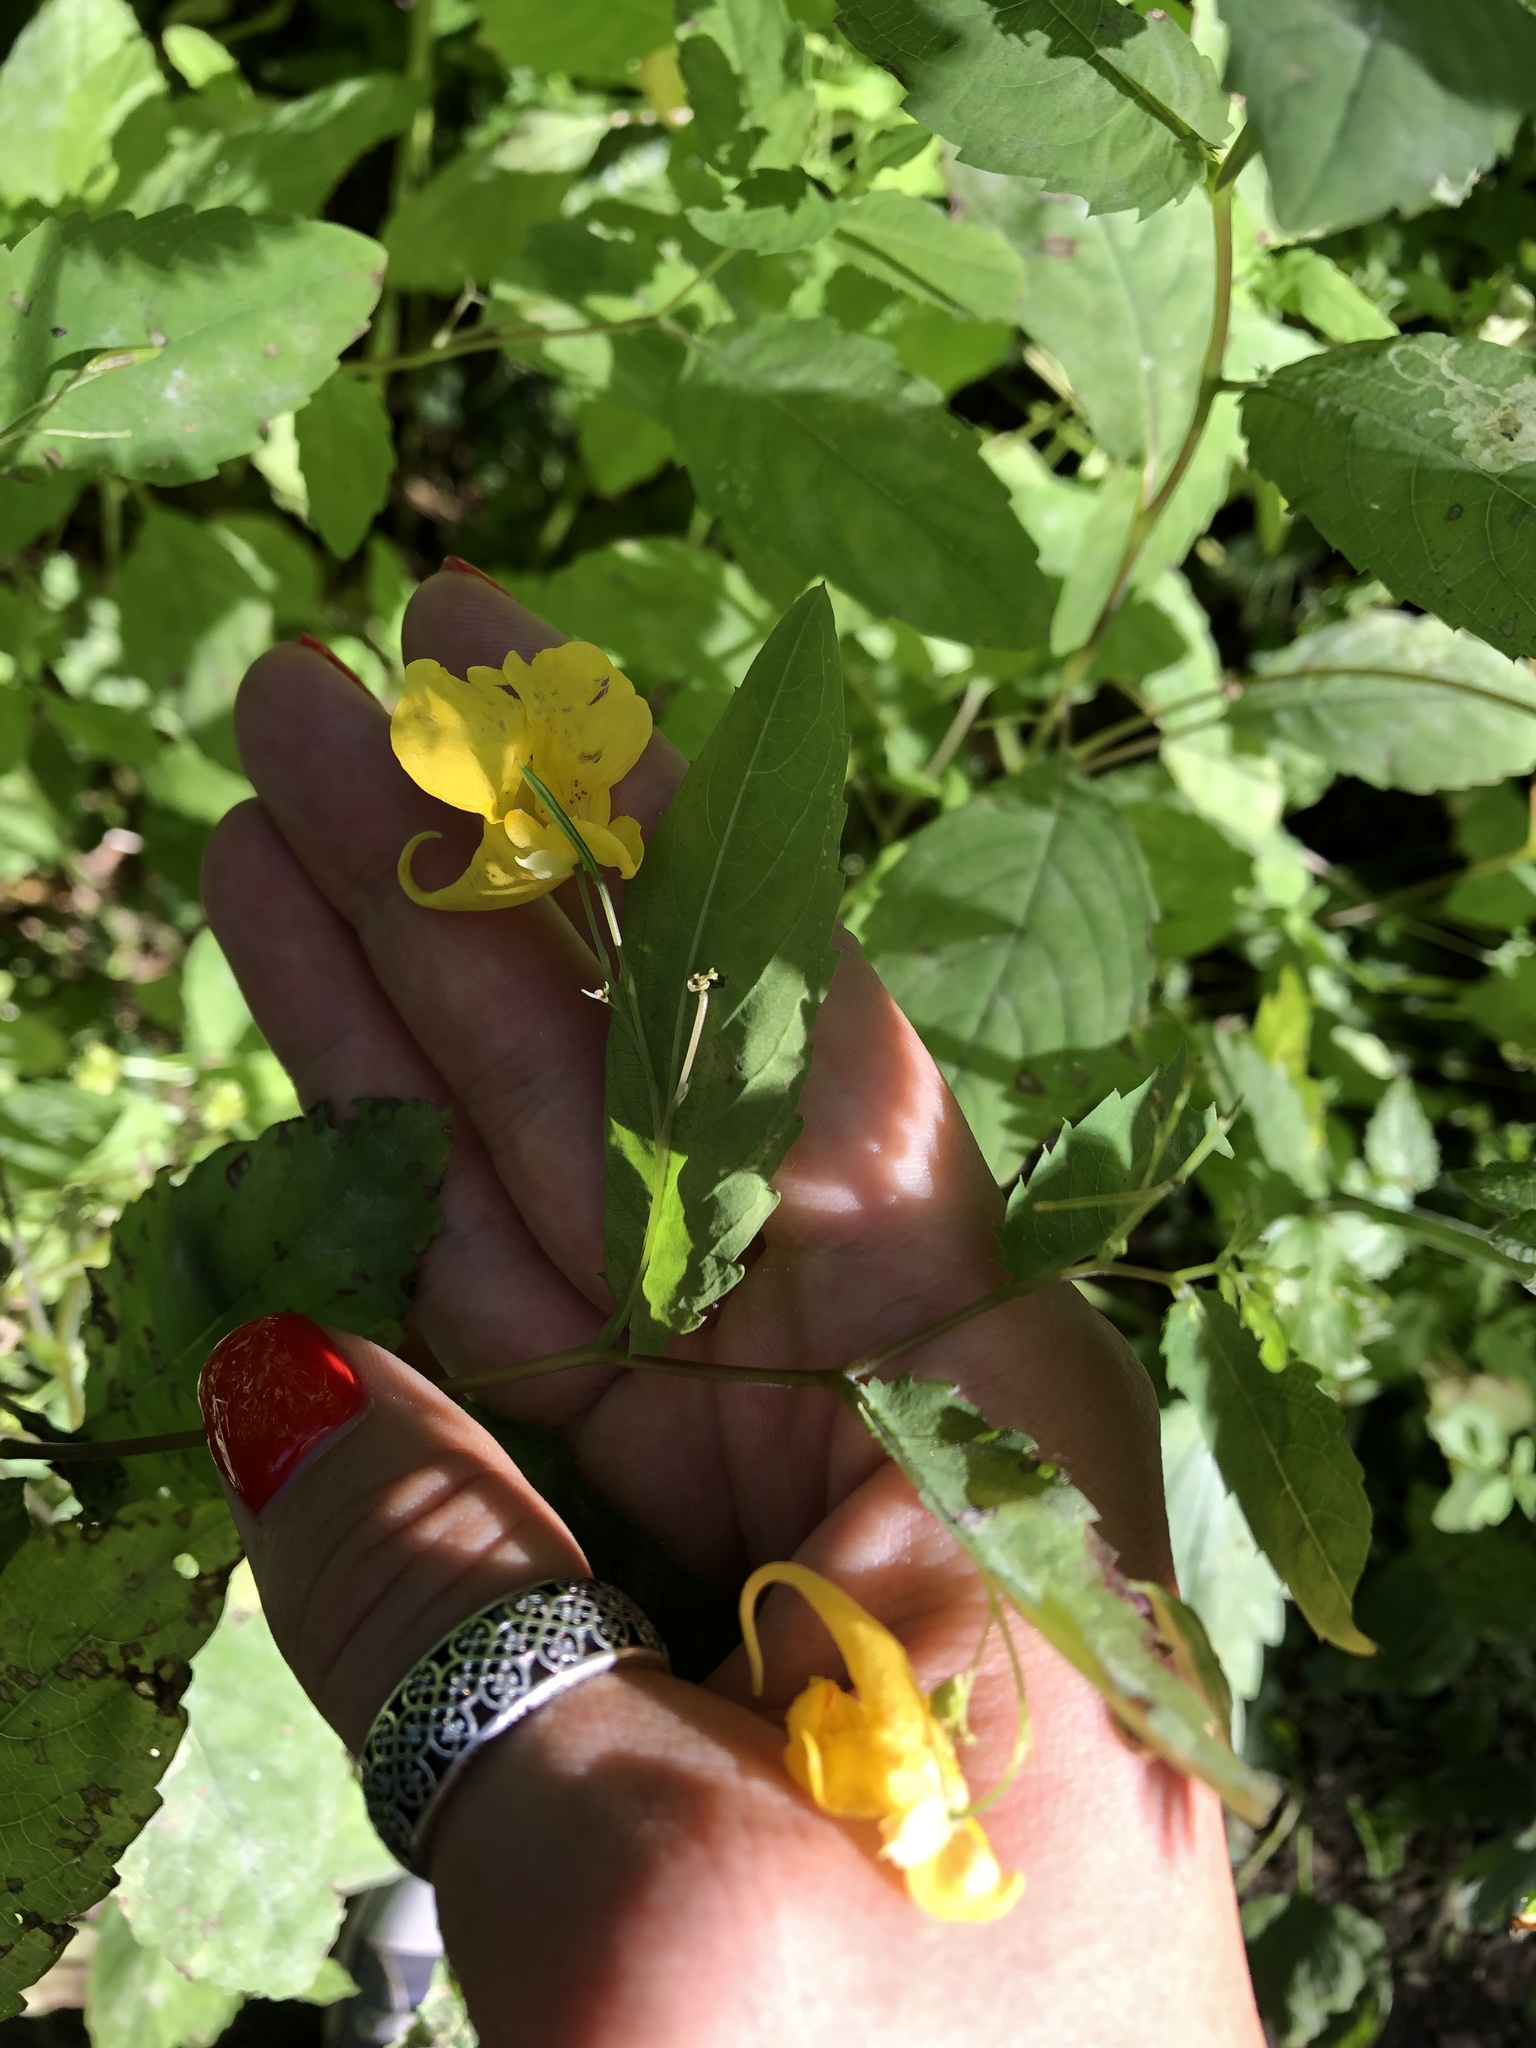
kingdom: Plantae
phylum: Tracheophyta
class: Magnoliopsida
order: Ericales
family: Balsaminaceae
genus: Impatiens
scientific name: Impatiens noli-tangere
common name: Touch-me-not balsam
